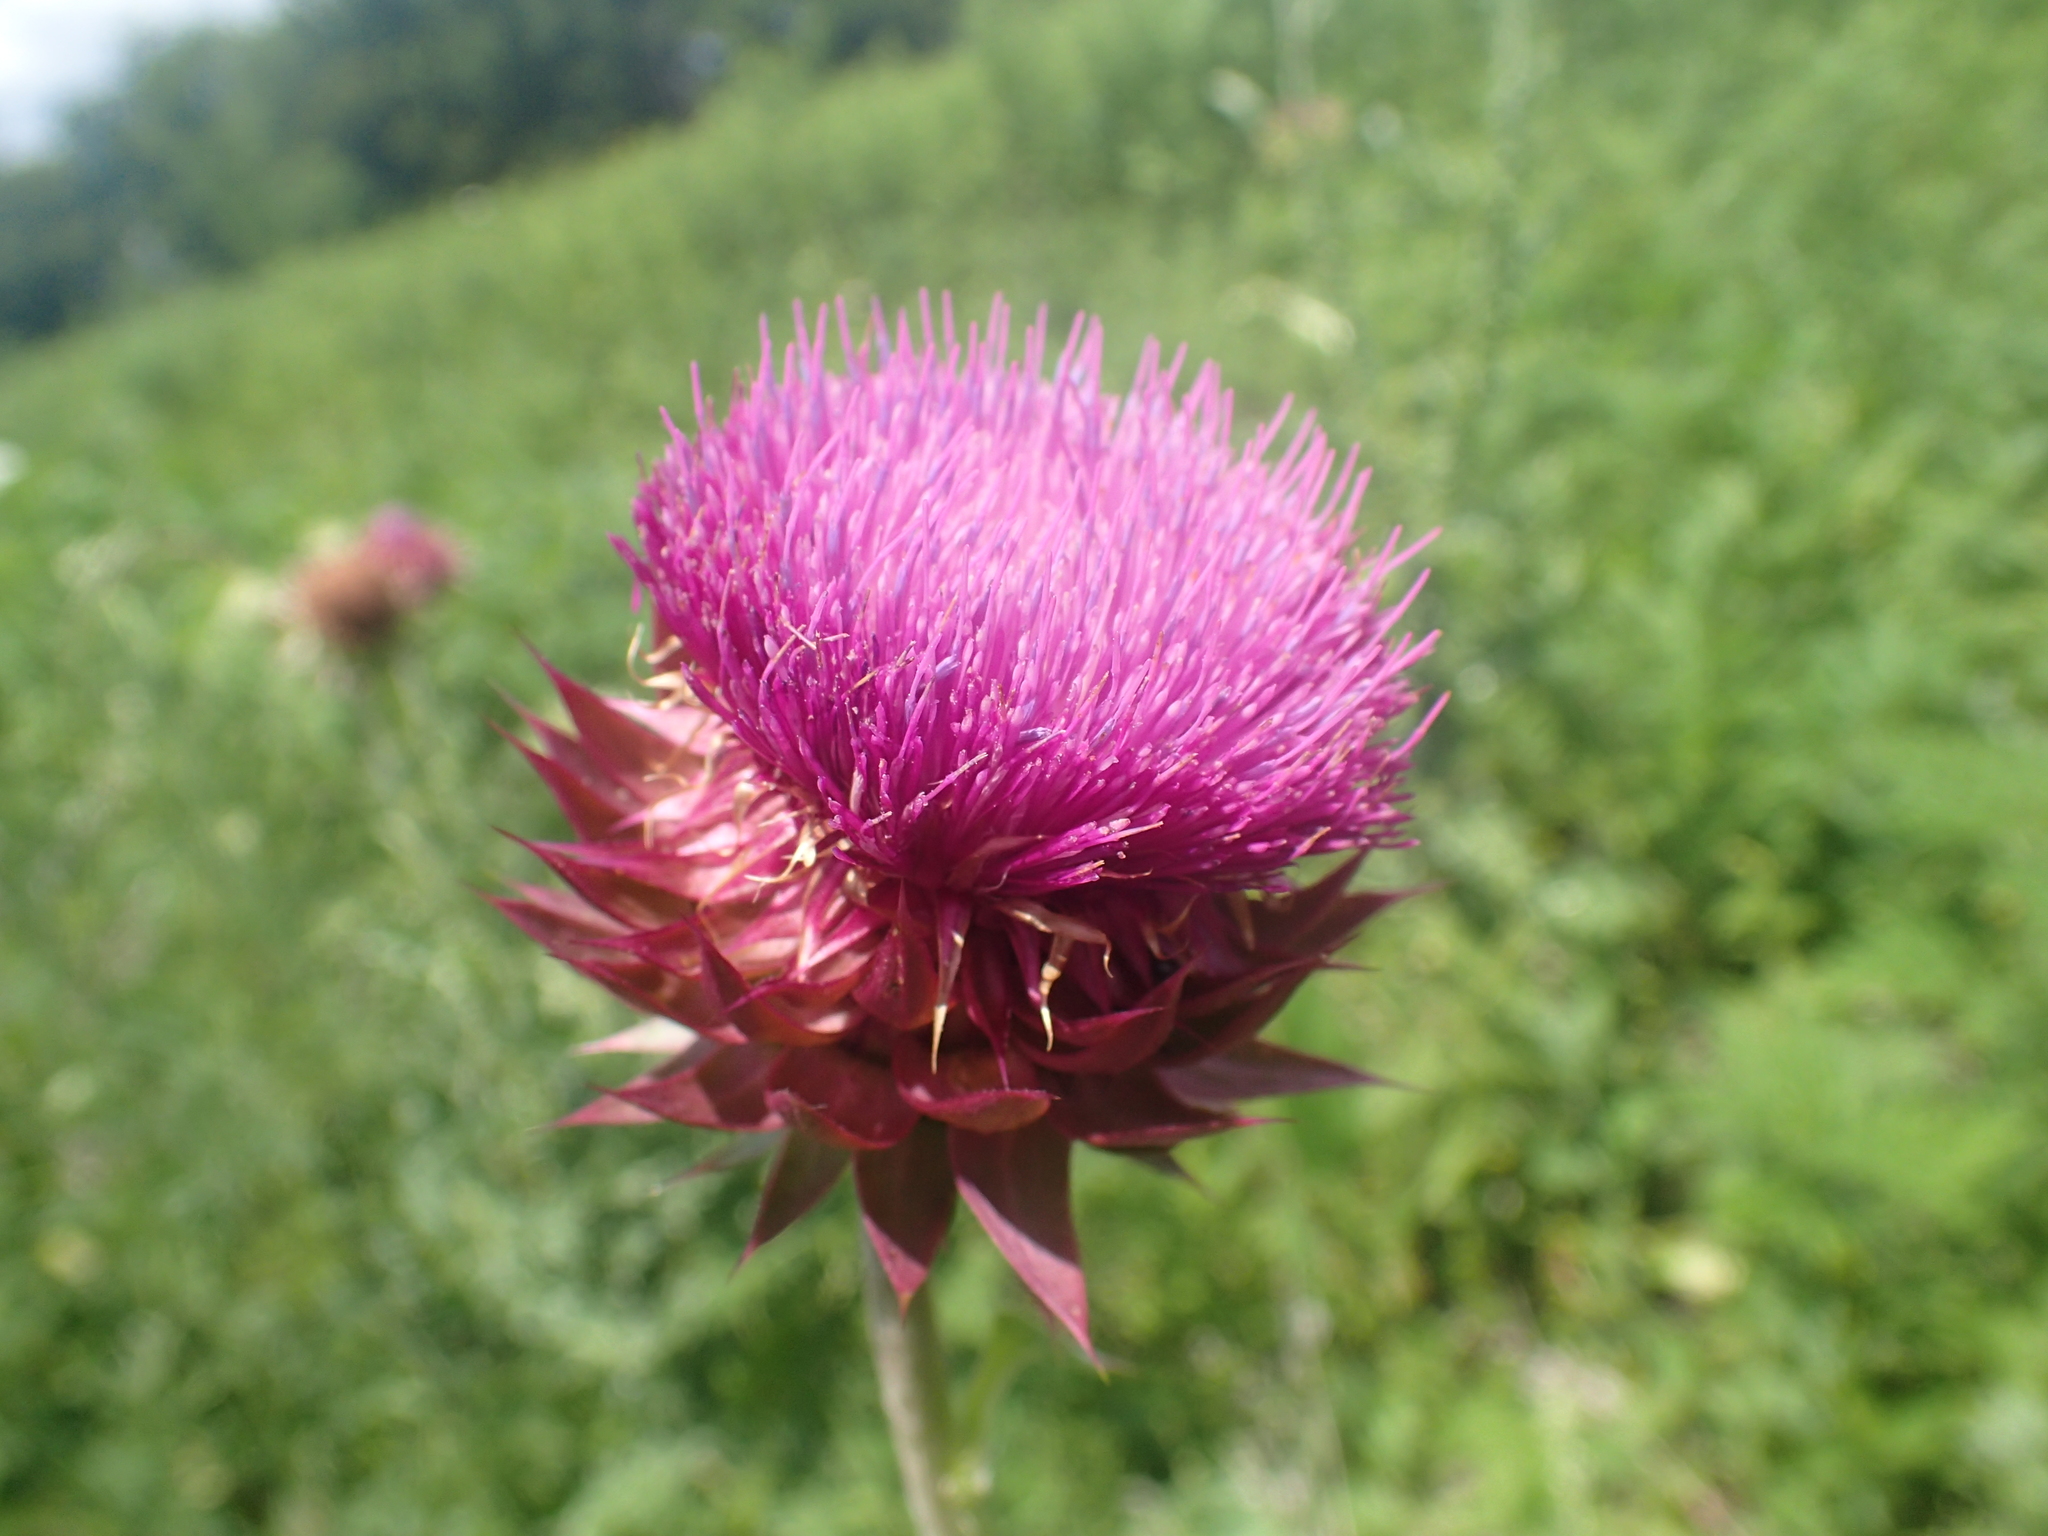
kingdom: Plantae
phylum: Tracheophyta
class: Magnoliopsida
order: Asterales
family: Asteraceae
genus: Carduus
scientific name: Carduus nutans
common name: Musk thistle
